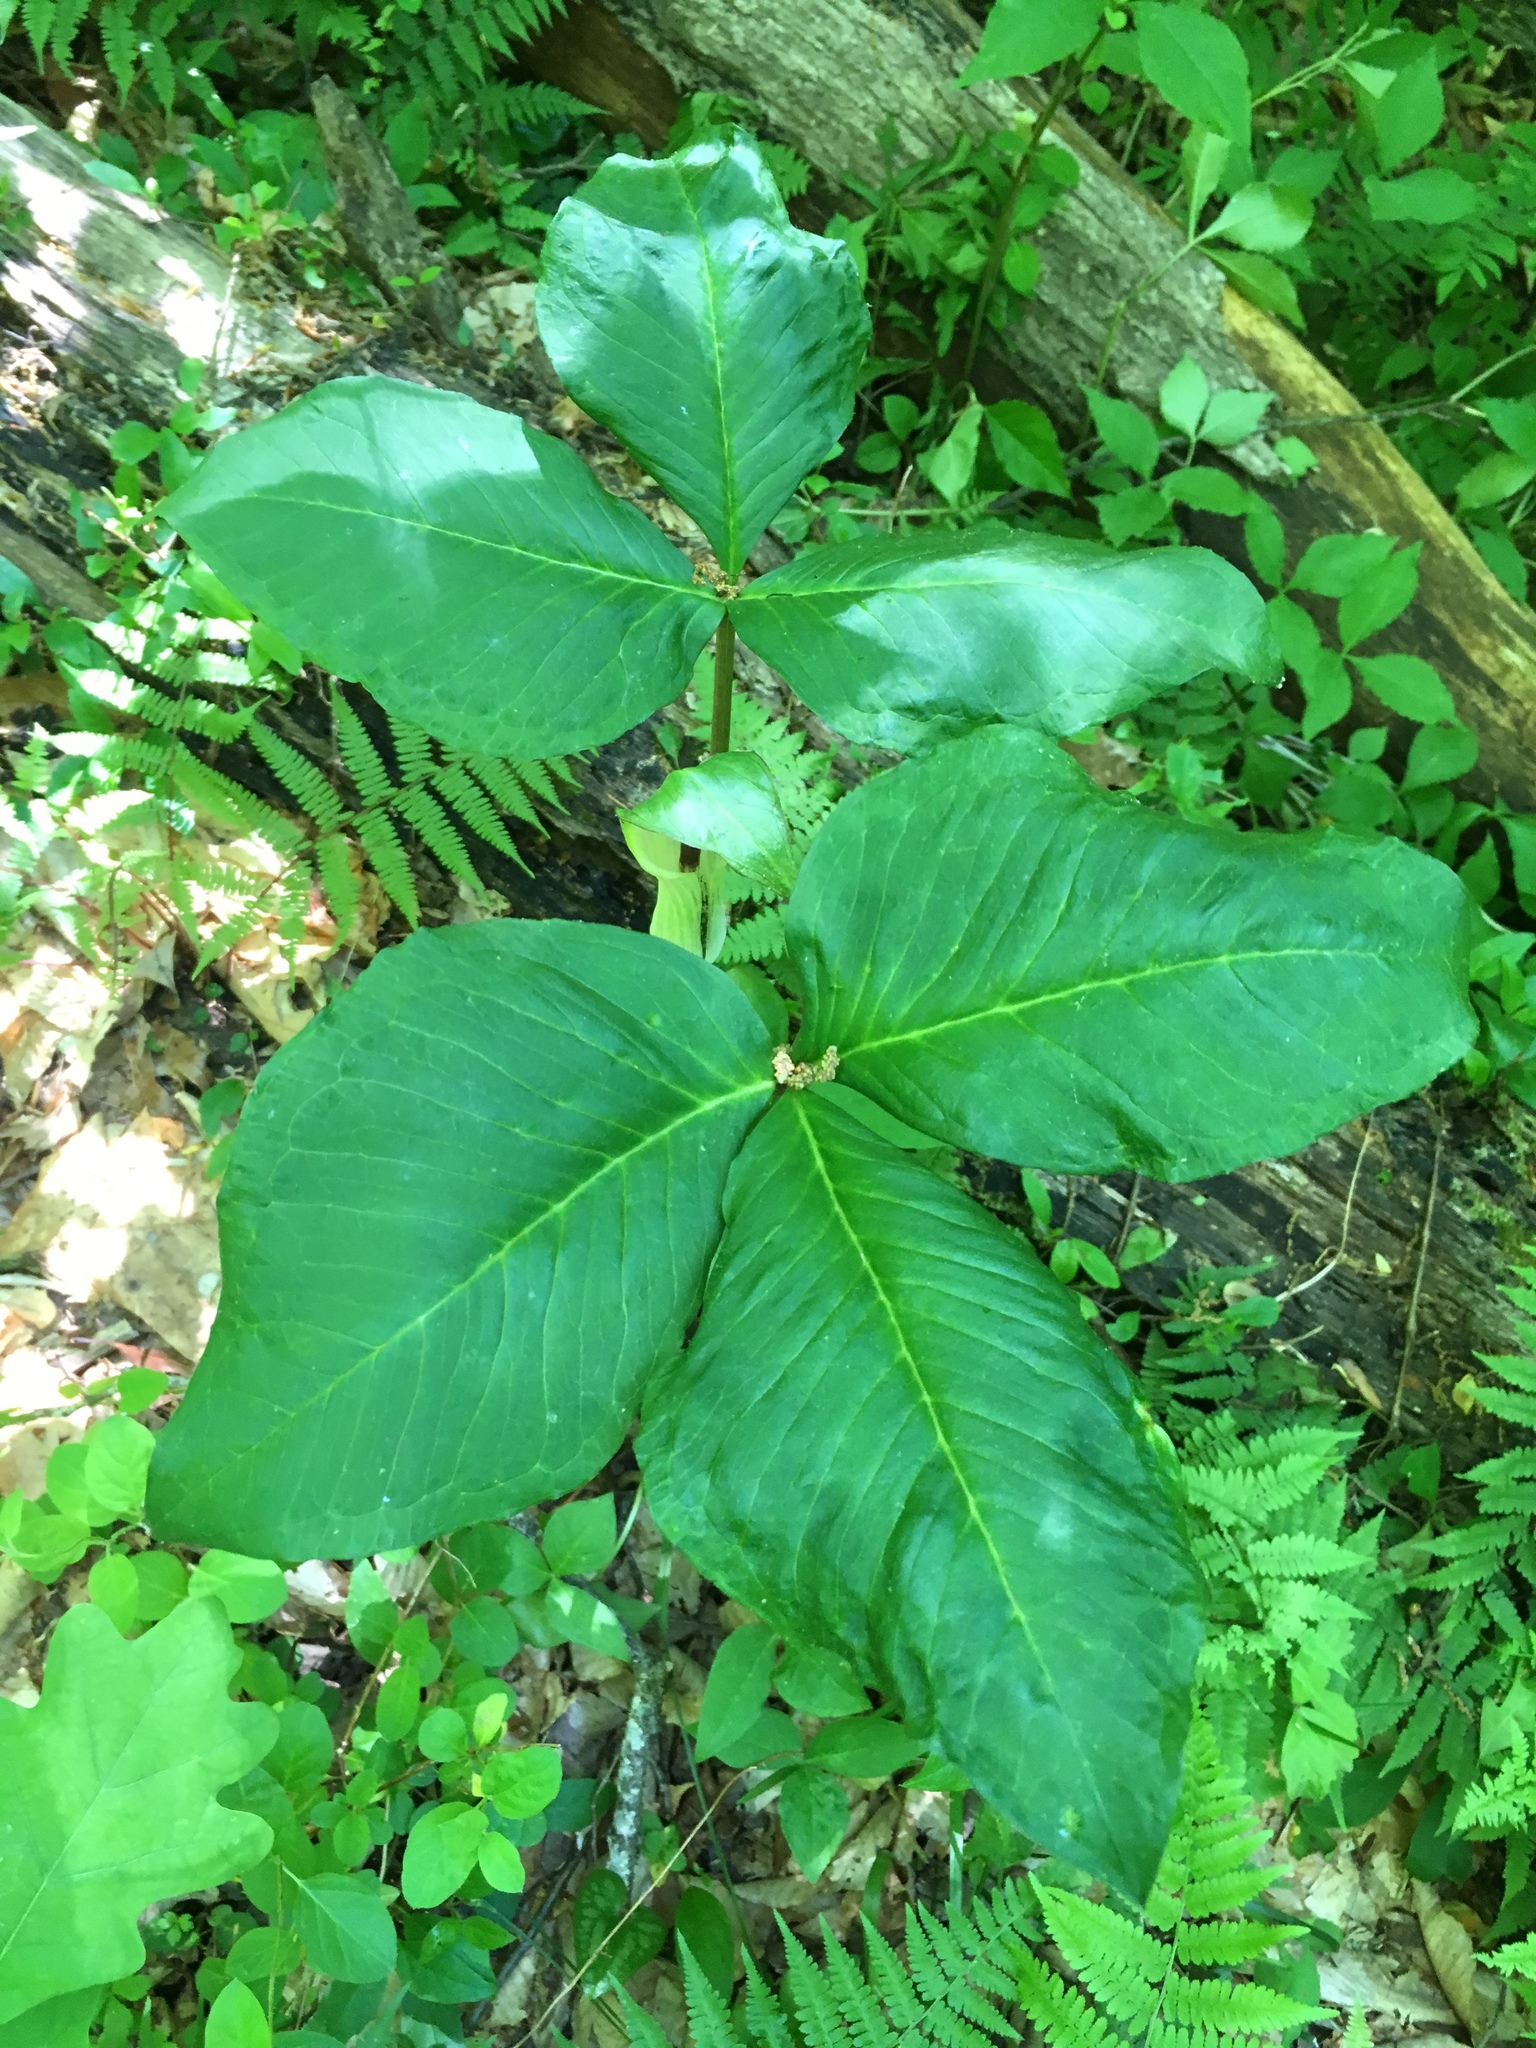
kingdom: Plantae
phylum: Tracheophyta
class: Liliopsida
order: Alismatales
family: Araceae
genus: Arisaema
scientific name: Arisaema triphyllum
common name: Jack-in-the-pulpit
